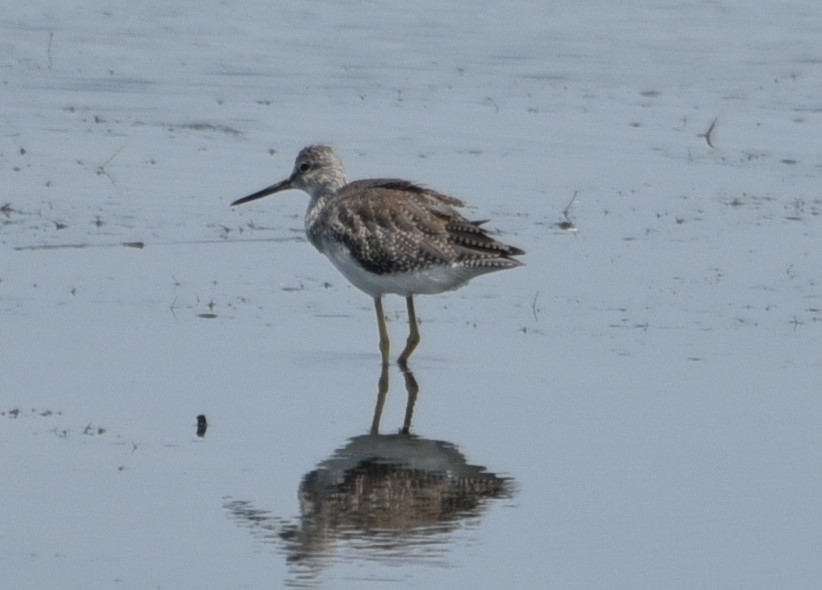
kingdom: Animalia
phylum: Chordata
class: Aves
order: Charadriiformes
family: Scolopacidae
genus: Tringa
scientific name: Tringa melanoleuca
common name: Greater yellowlegs
